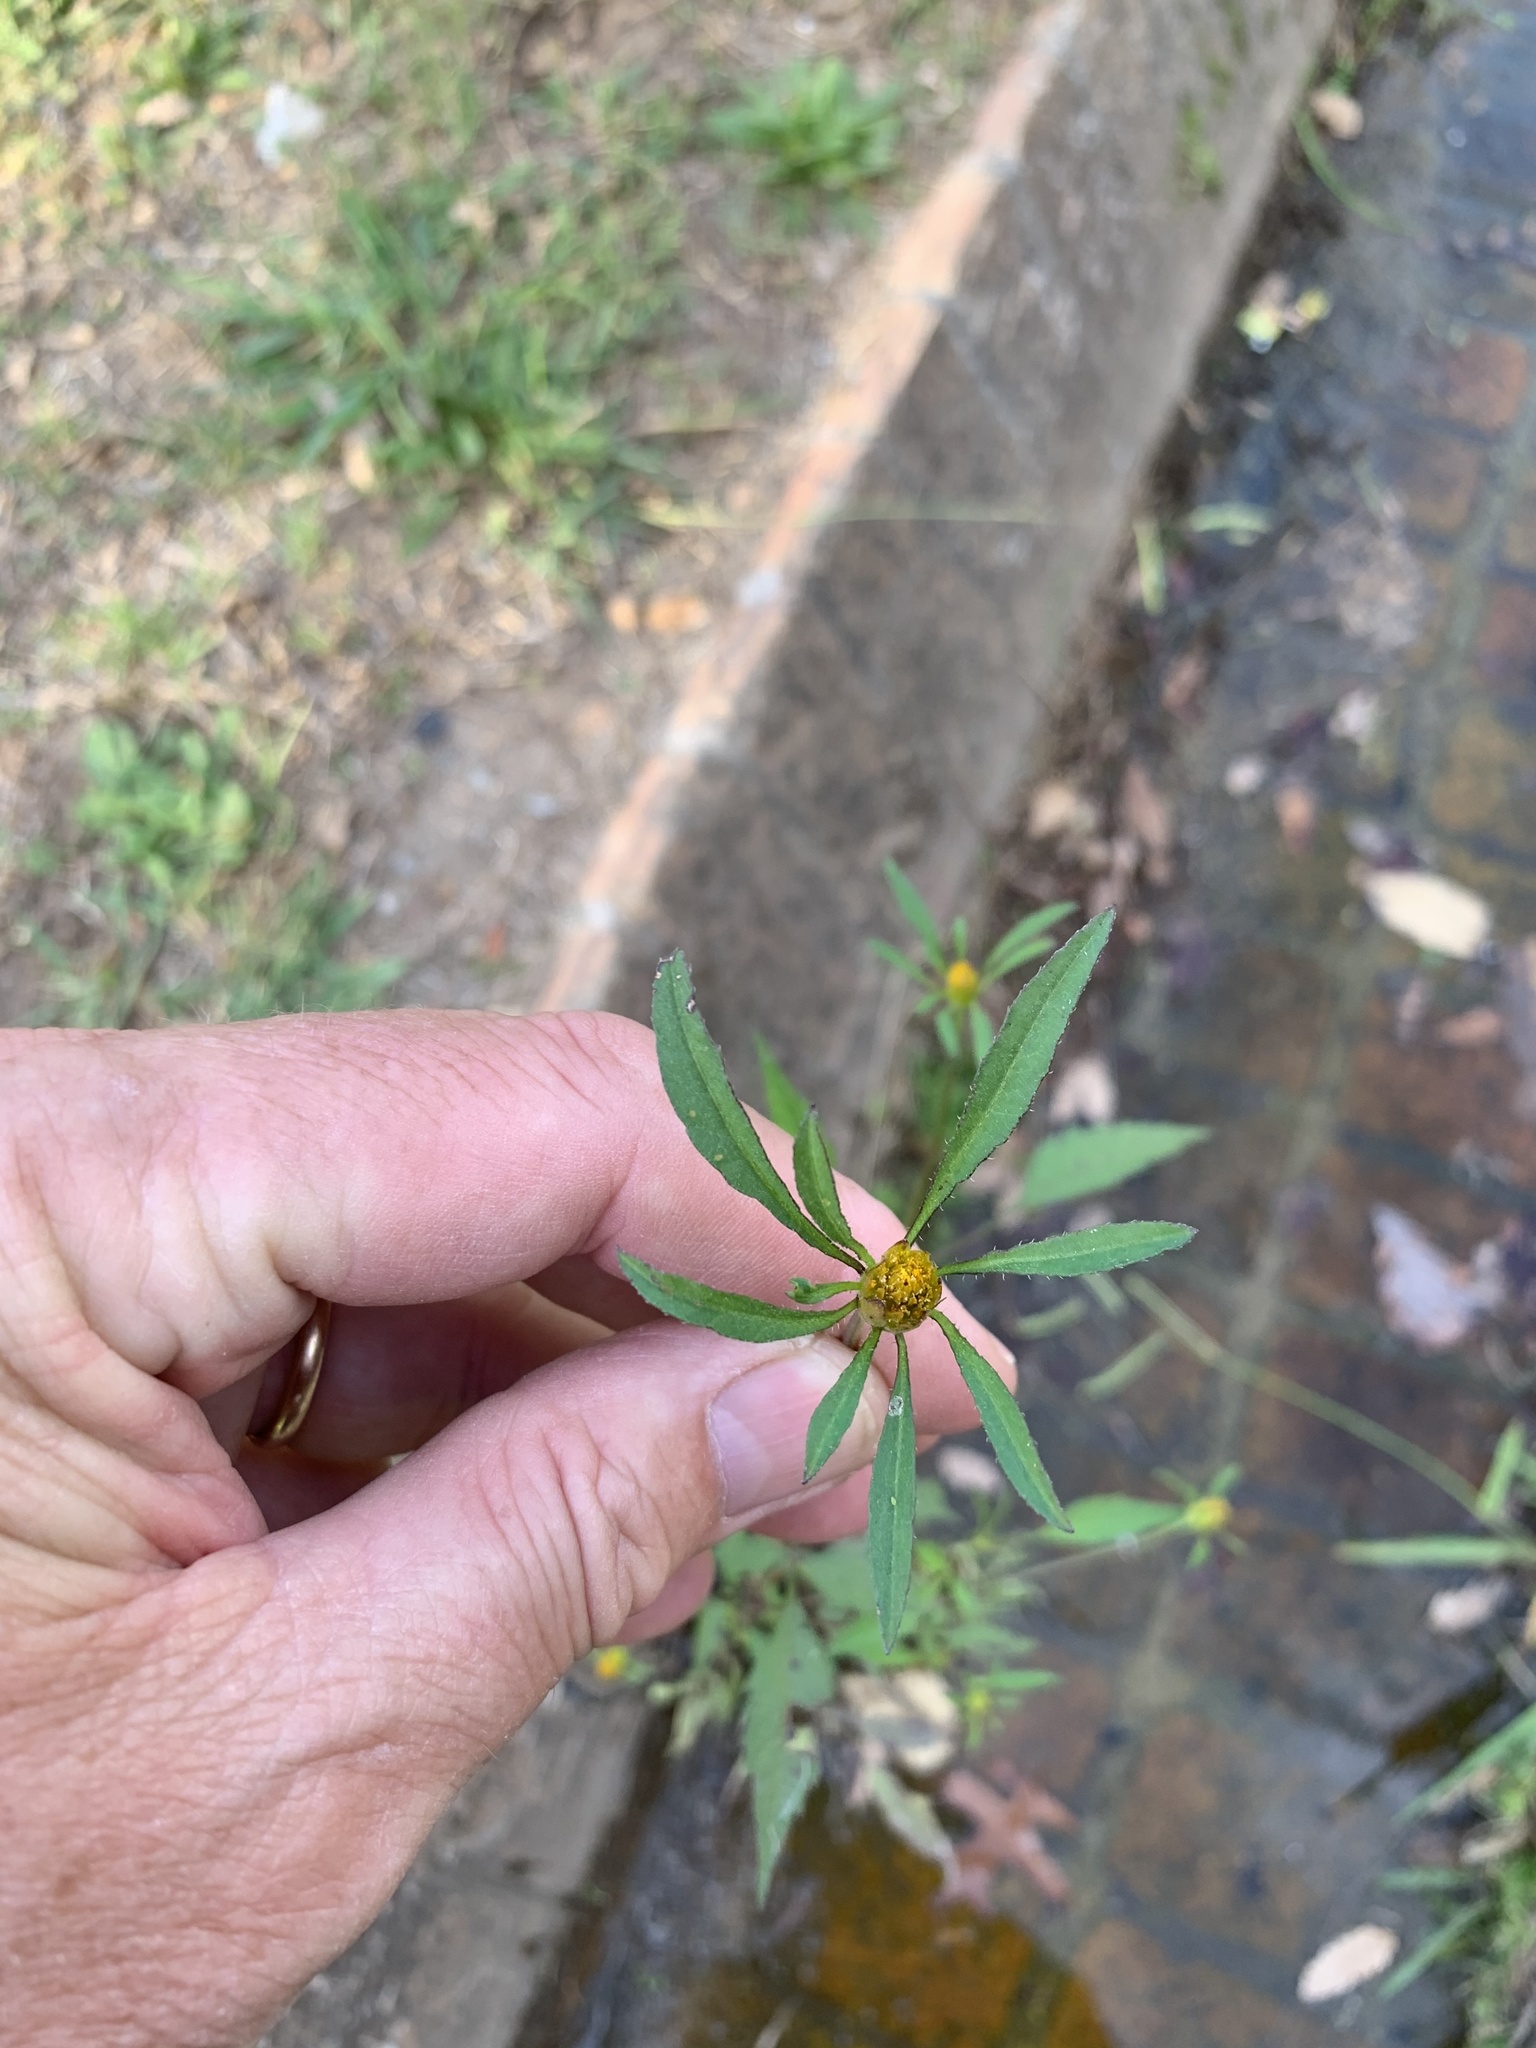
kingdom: Plantae
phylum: Tracheophyta
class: Magnoliopsida
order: Asterales
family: Asteraceae
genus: Bidens
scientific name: Bidens frondosa
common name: Beggarticks
